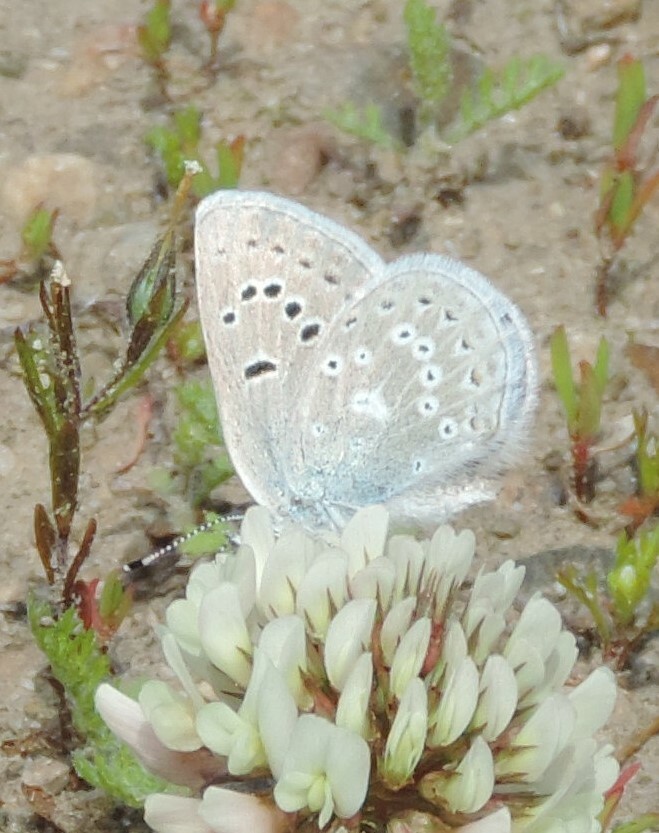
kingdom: Animalia
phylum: Arthropoda
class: Insecta
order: Lepidoptera
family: Lycaenidae
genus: Icaricia
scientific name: Icaricia icarioides
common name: Boisduval's blue
